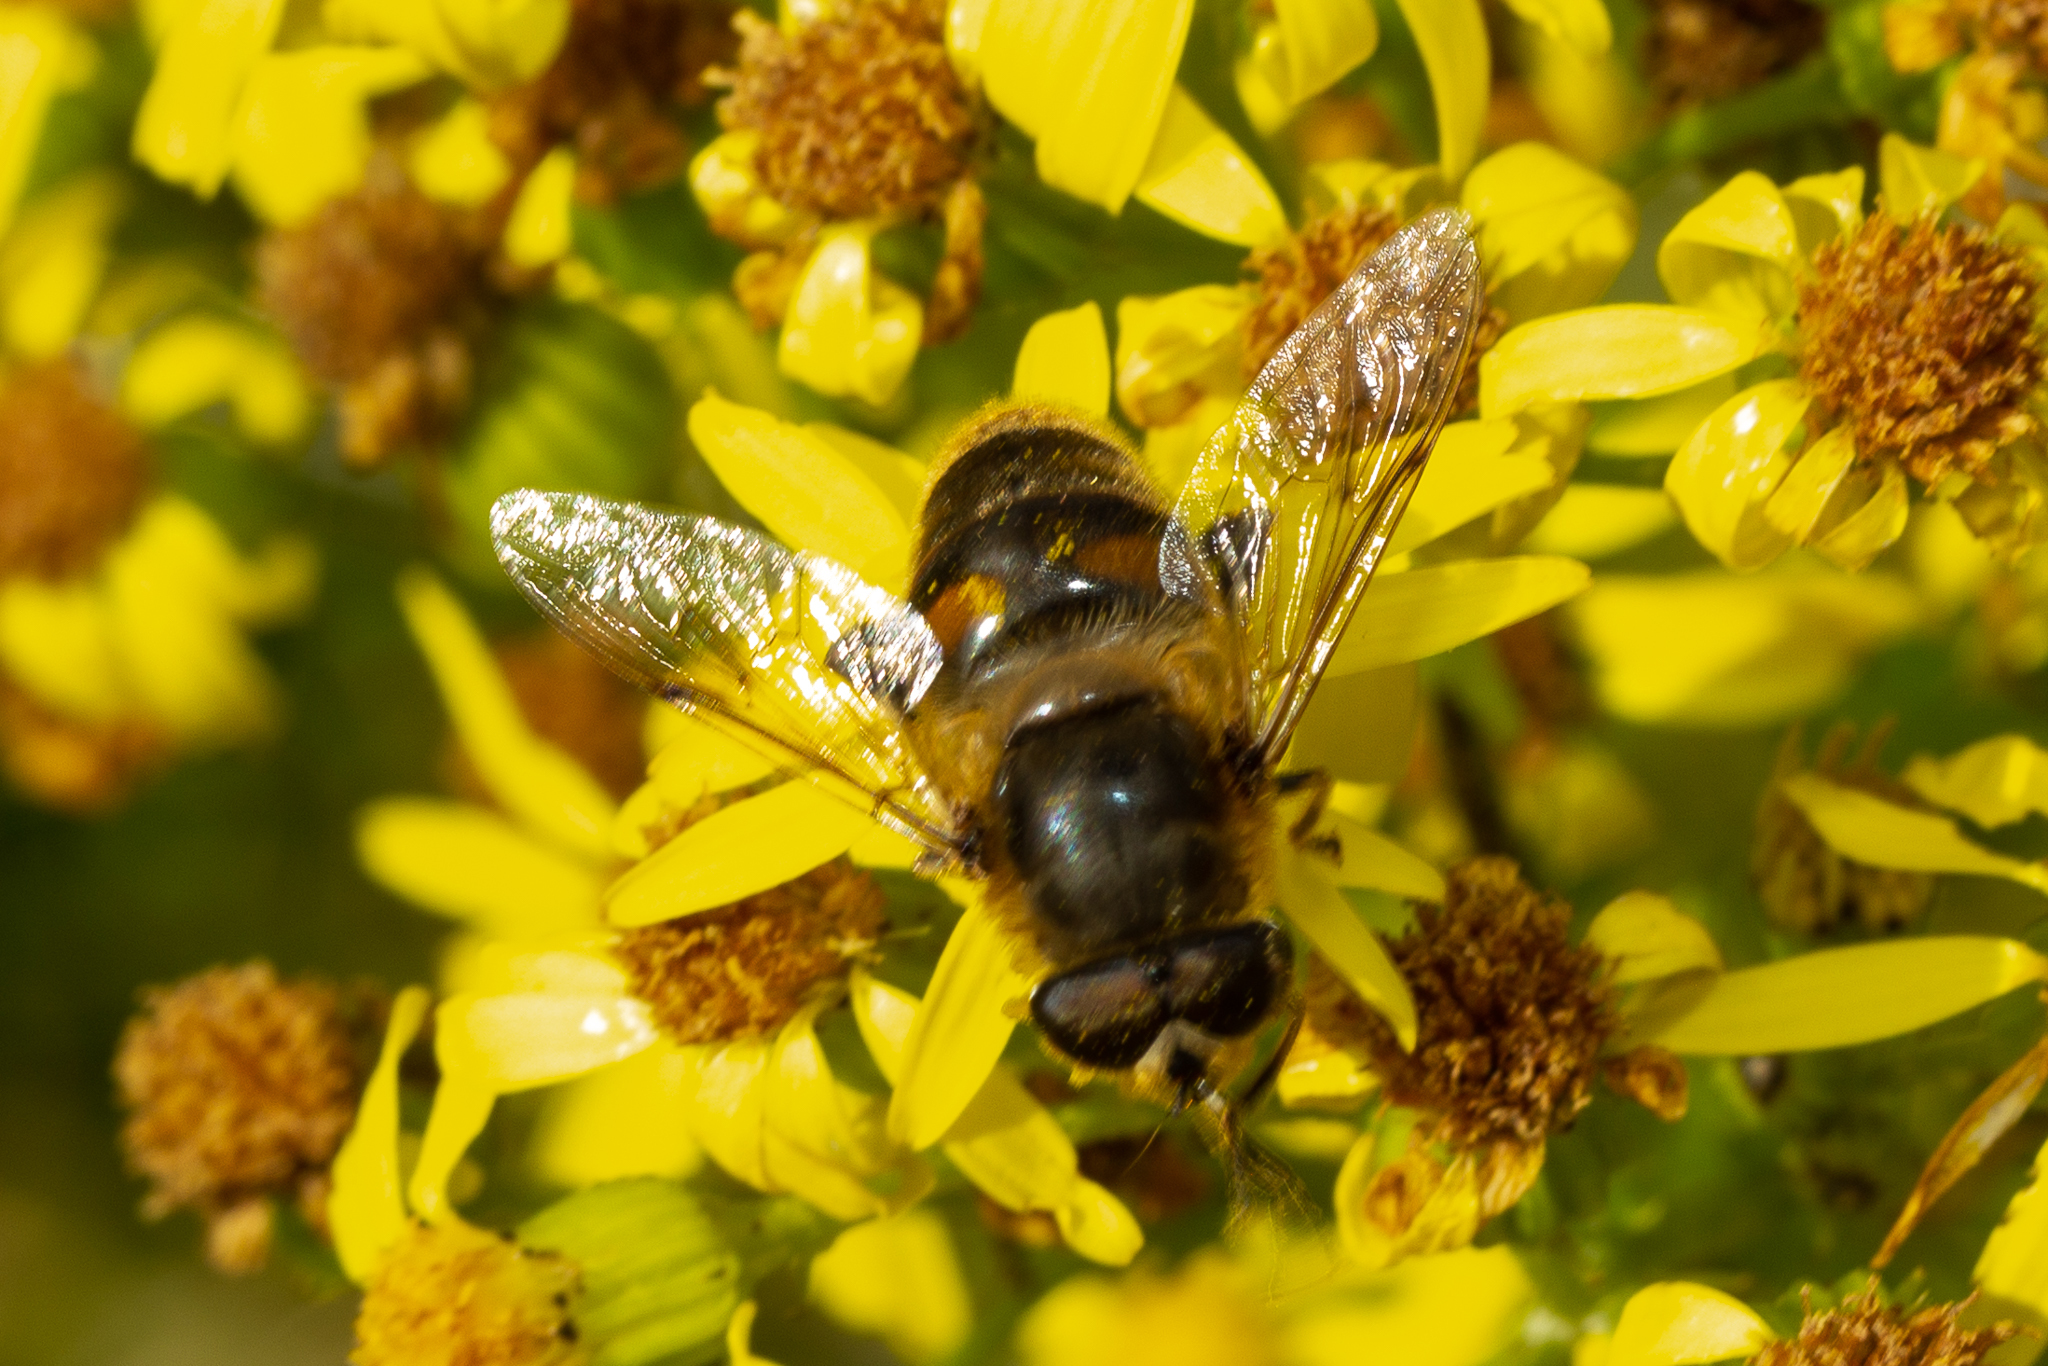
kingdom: Animalia
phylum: Arthropoda
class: Insecta
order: Diptera
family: Syrphidae
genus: Eristalis
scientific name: Eristalis tenax
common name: Drone fly
